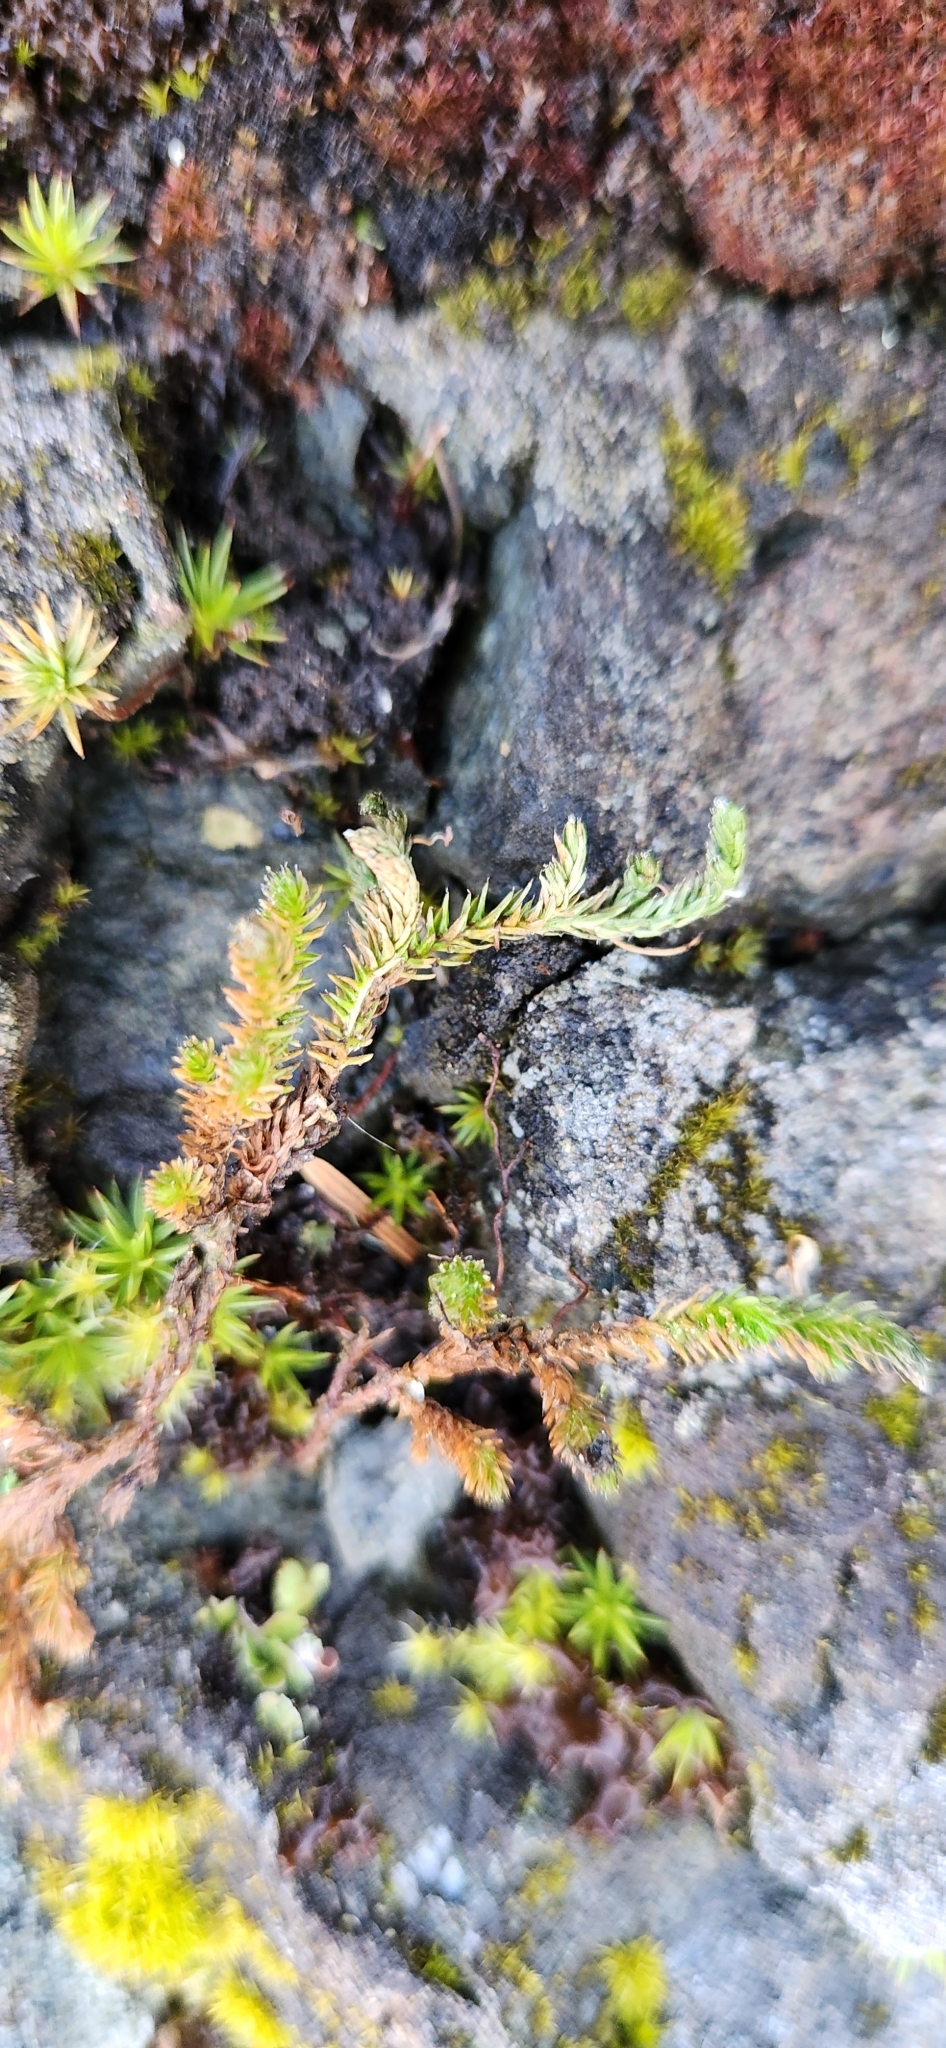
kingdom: Plantae
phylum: Tracheophyta
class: Lycopodiopsida
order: Selaginellales
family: Selaginellaceae
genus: Selaginella
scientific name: Selaginella wallacei
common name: Wallace's selaginella
